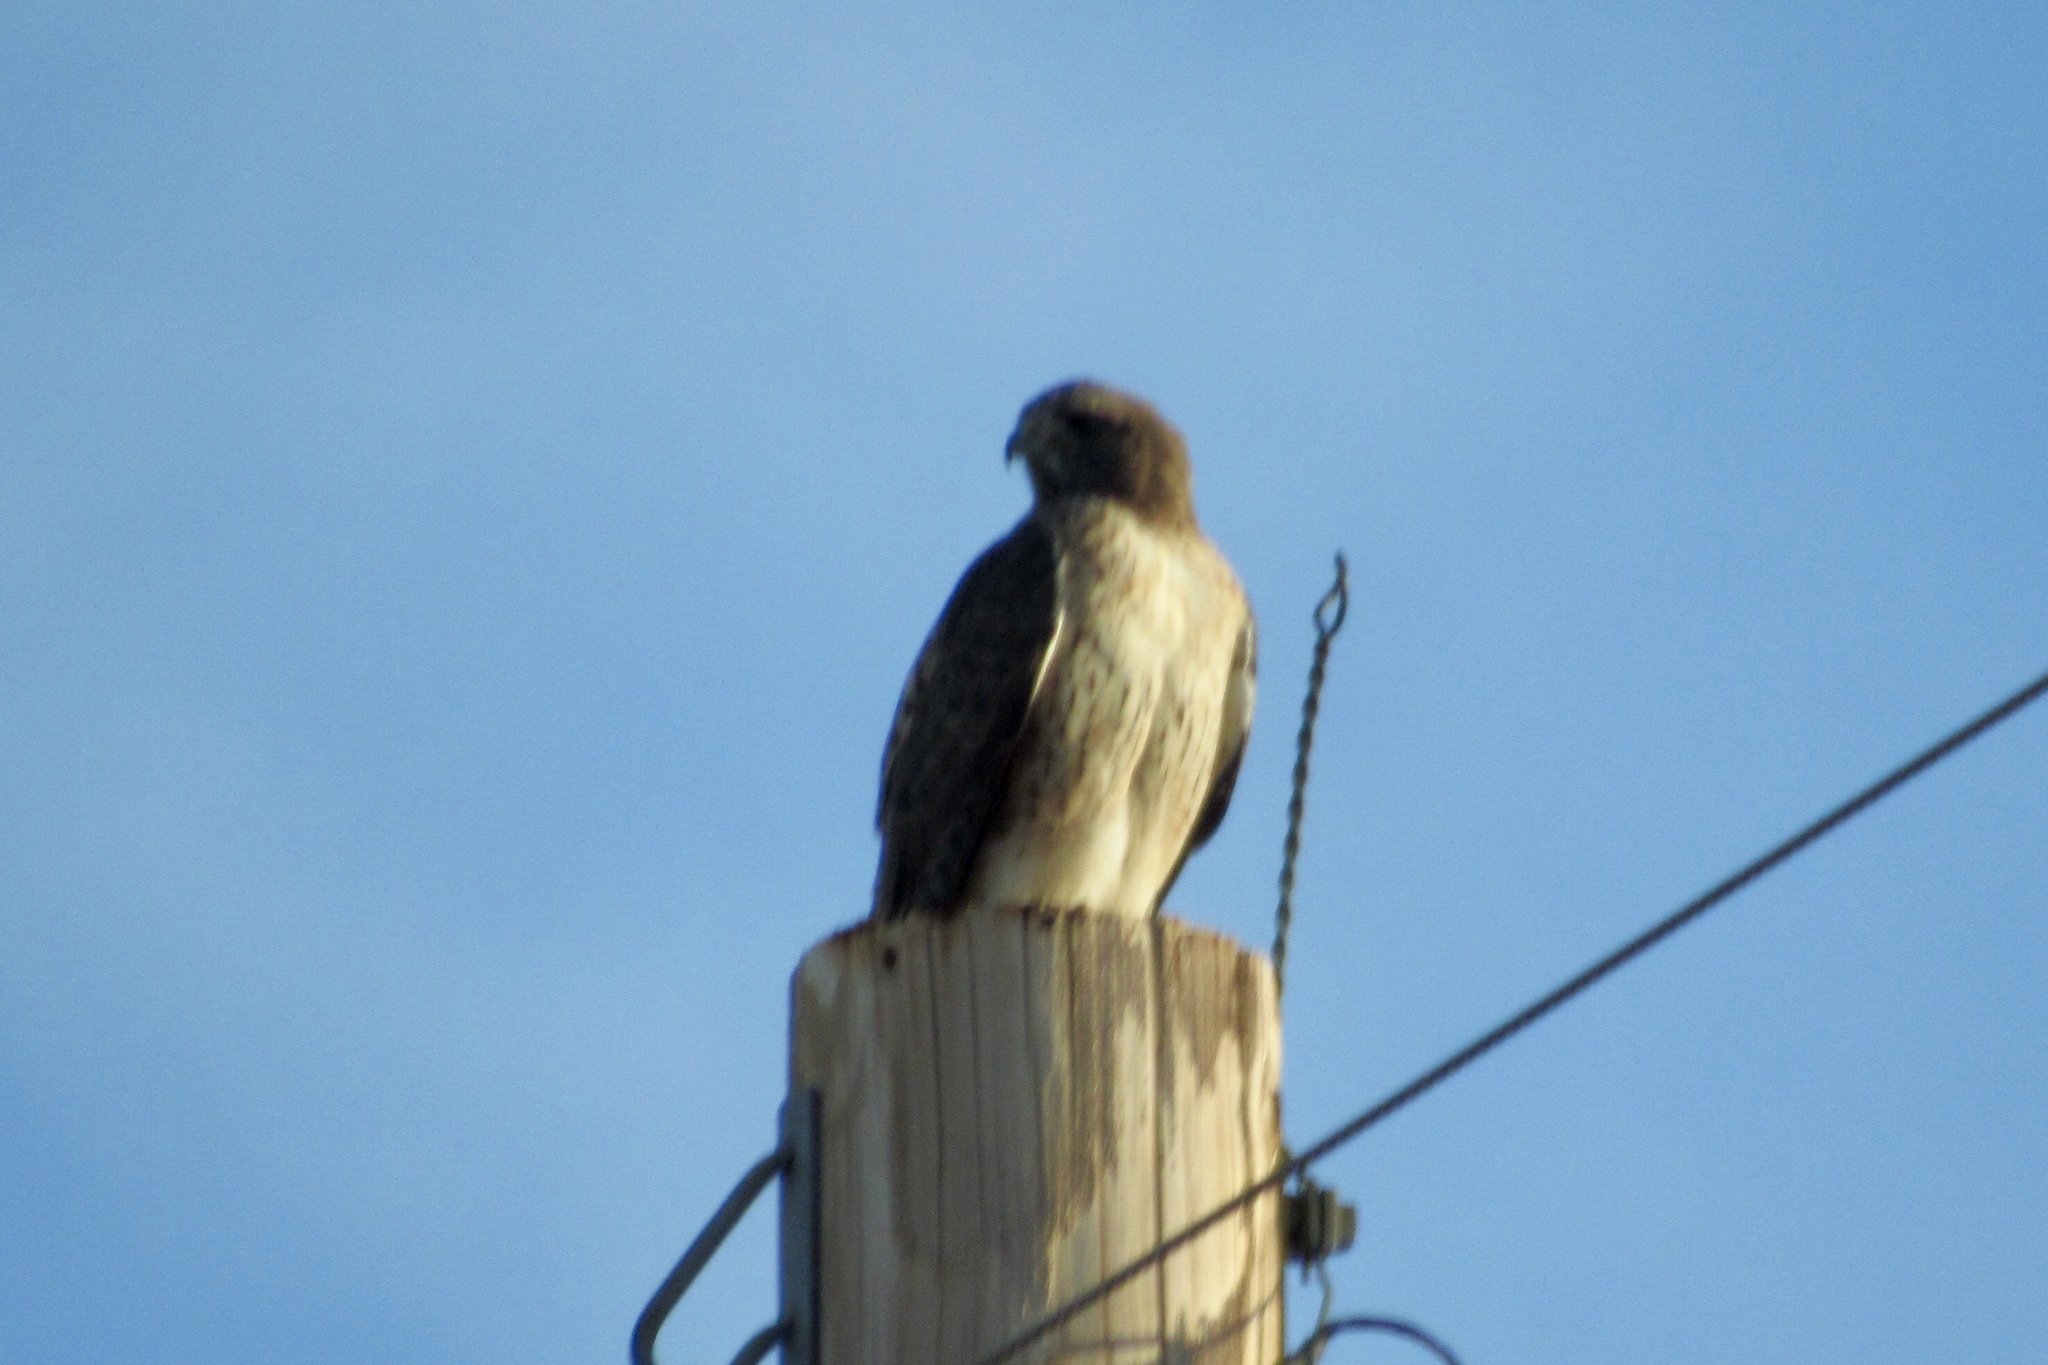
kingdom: Animalia
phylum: Chordata
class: Aves
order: Accipitriformes
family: Accipitridae
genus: Buteo
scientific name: Buteo jamaicensis
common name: Red-tailed hawk
